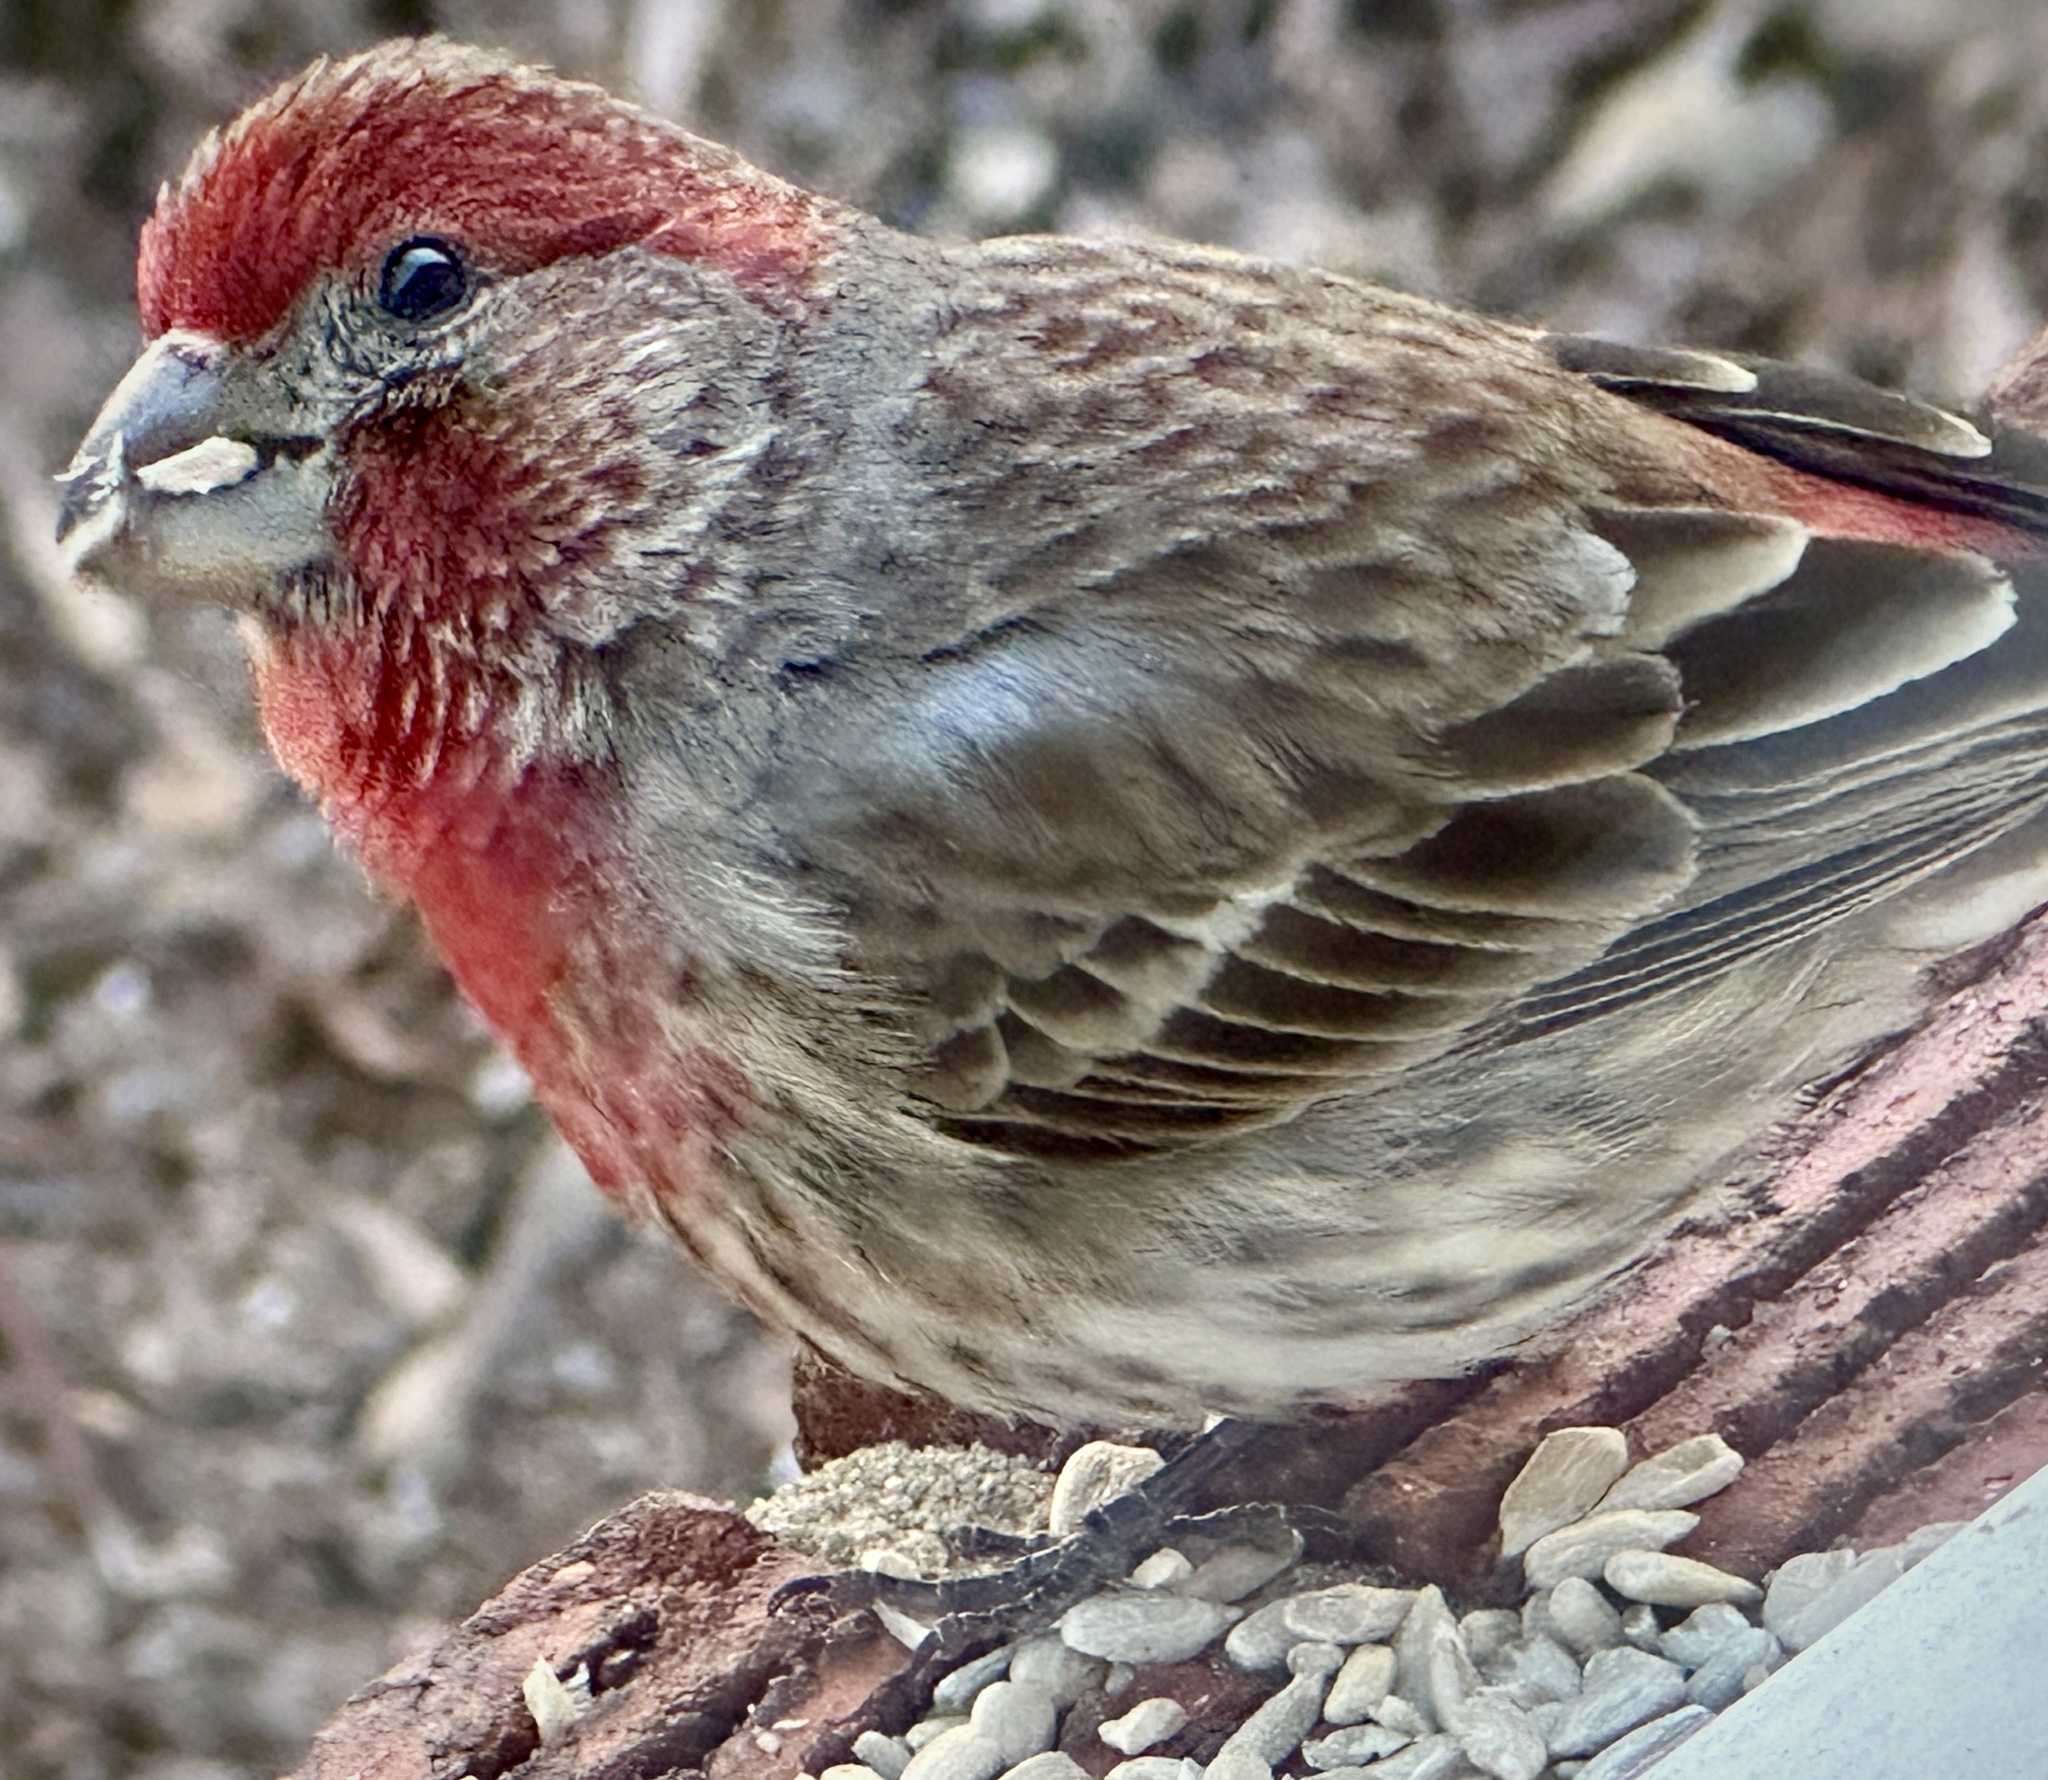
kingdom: Animalia
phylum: Chordata
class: Aves
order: Passeriformes
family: Fringillidae
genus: Haemorhous
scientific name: Haemorhous mexicanus
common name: House finch
